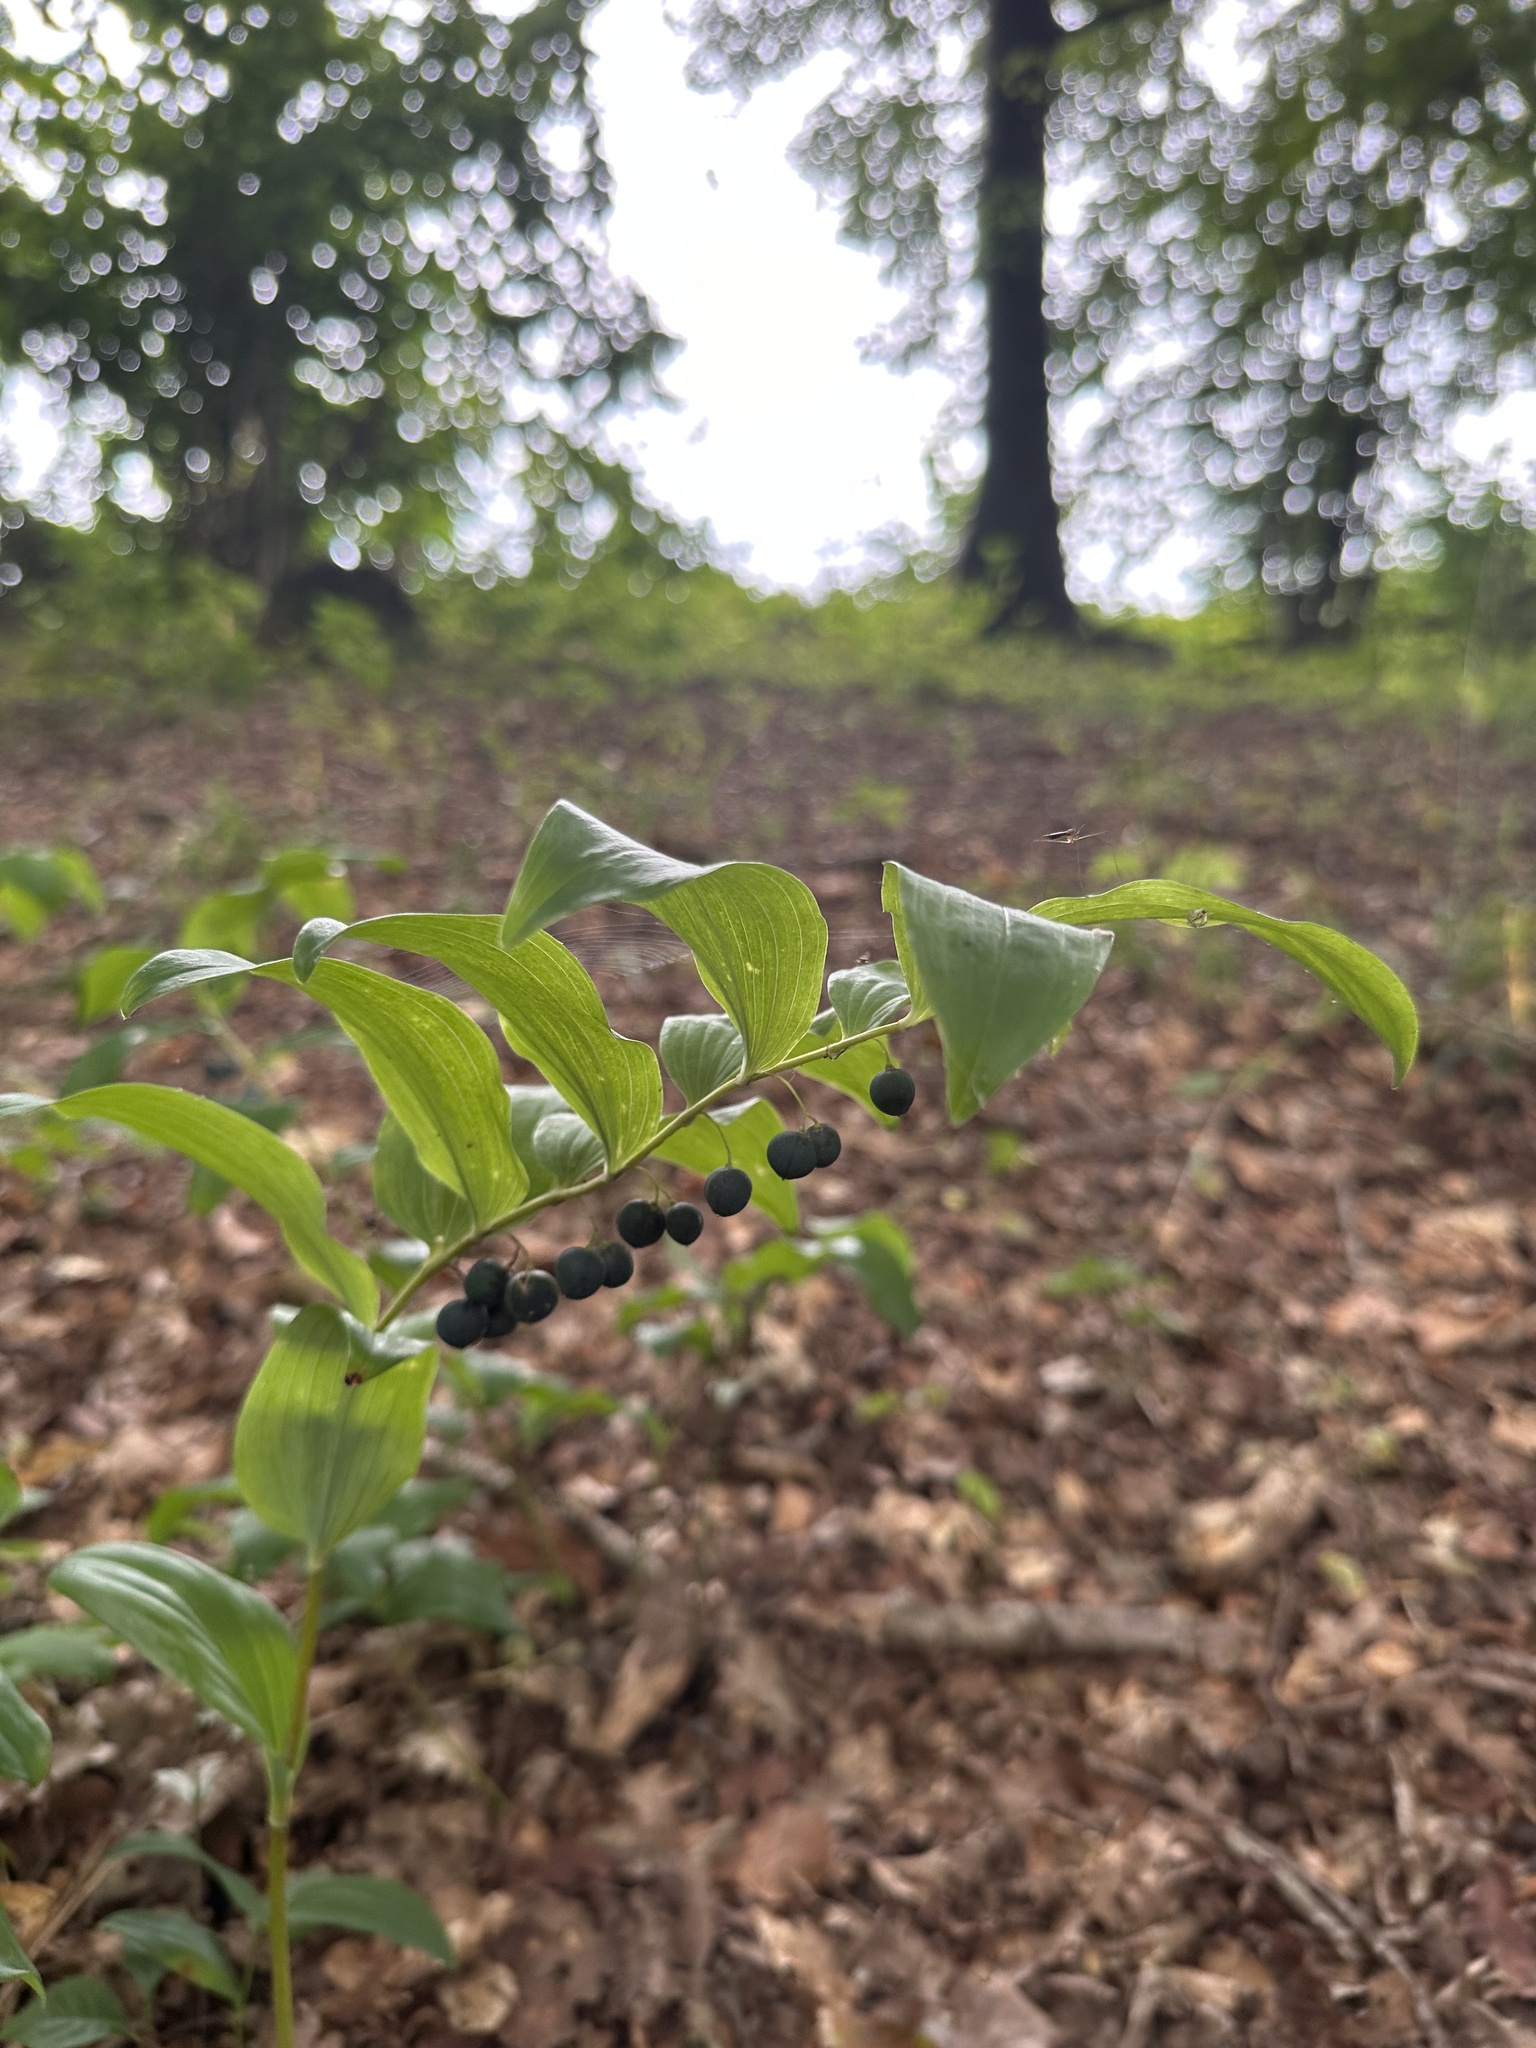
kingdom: Plantae
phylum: Tracheophyta
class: Liliopsida
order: Asparagales
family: Asparagaceae
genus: Polygonatum
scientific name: Polygonatum multiflorum
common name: Solomon's-seal
